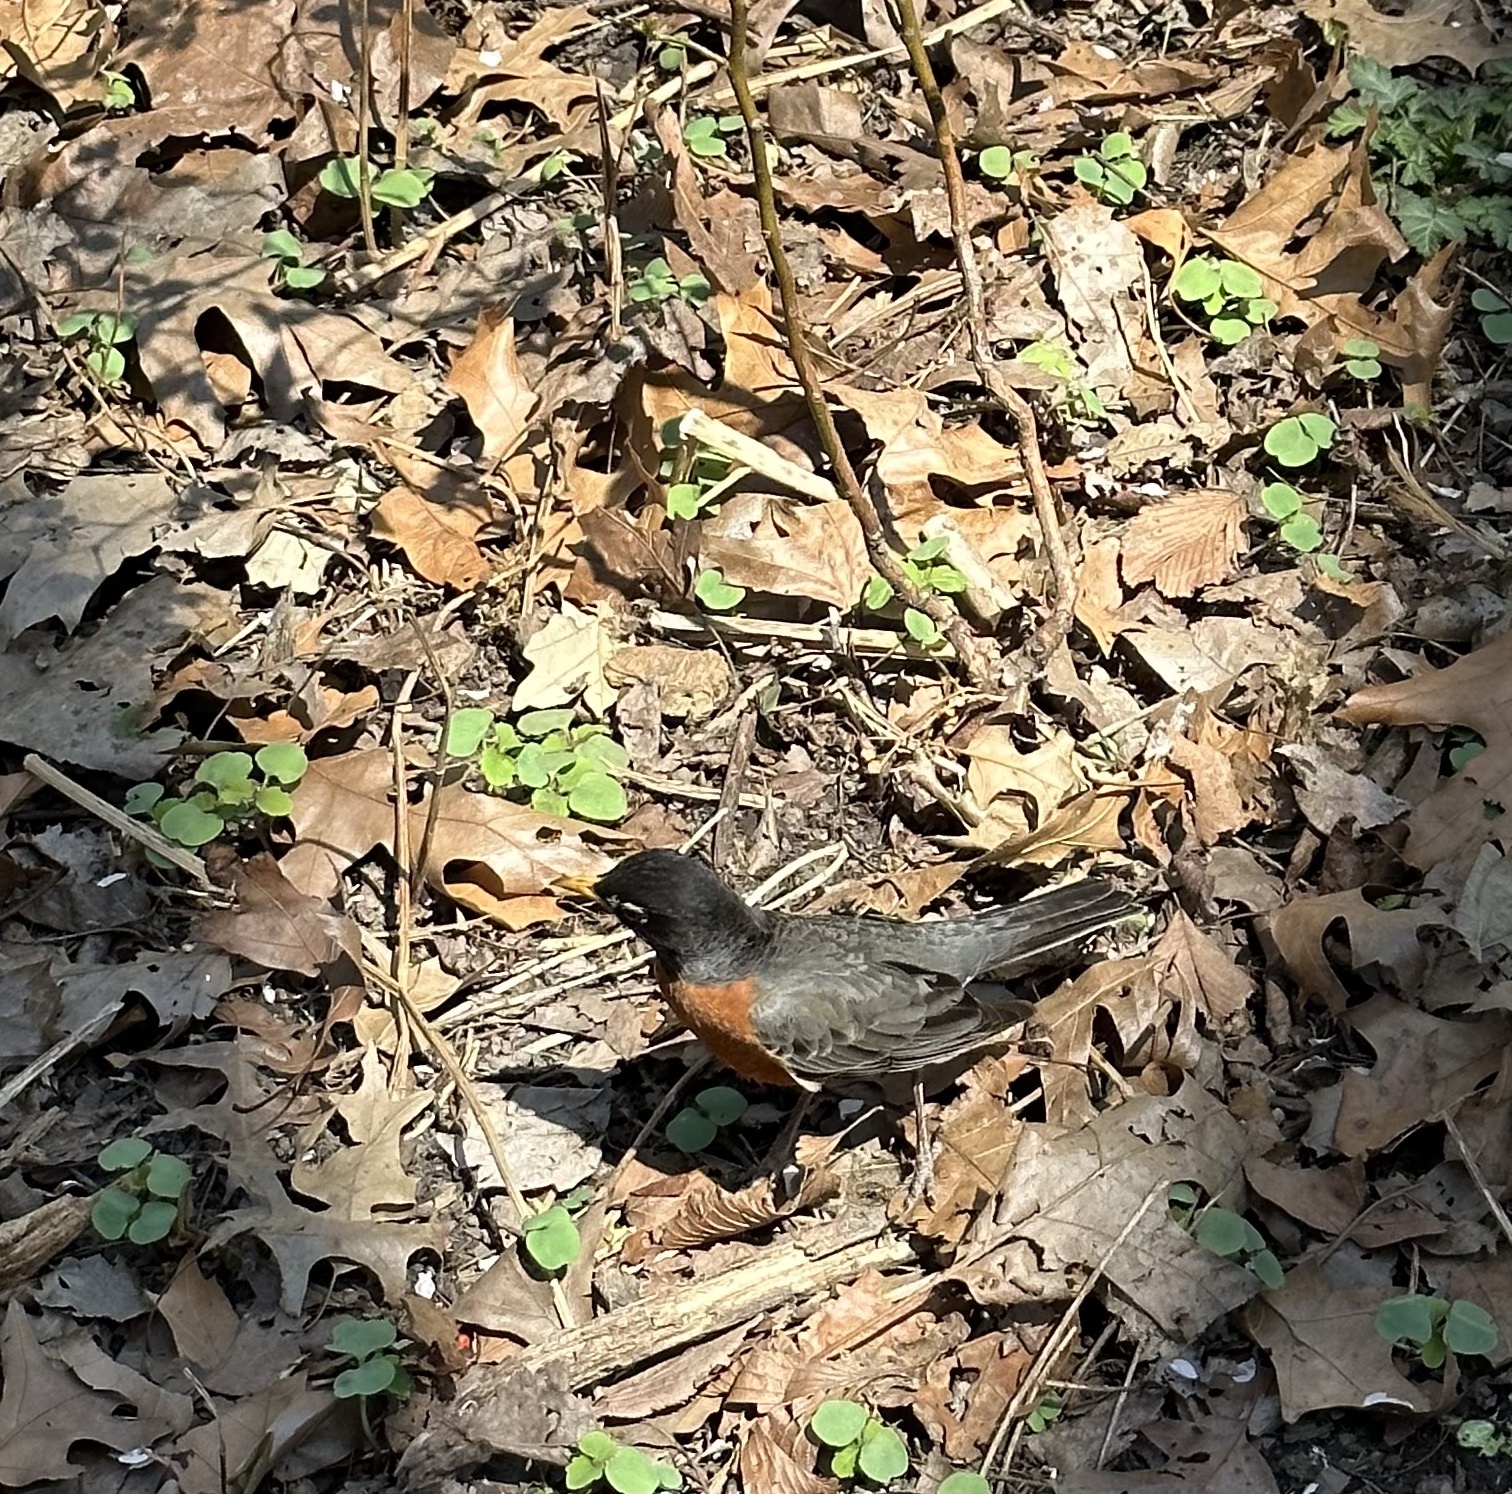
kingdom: Animalia
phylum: Chordata
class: Aves
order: Passeriformes
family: Turdidae
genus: Turdus
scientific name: Turdus migratorius
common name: American robin
